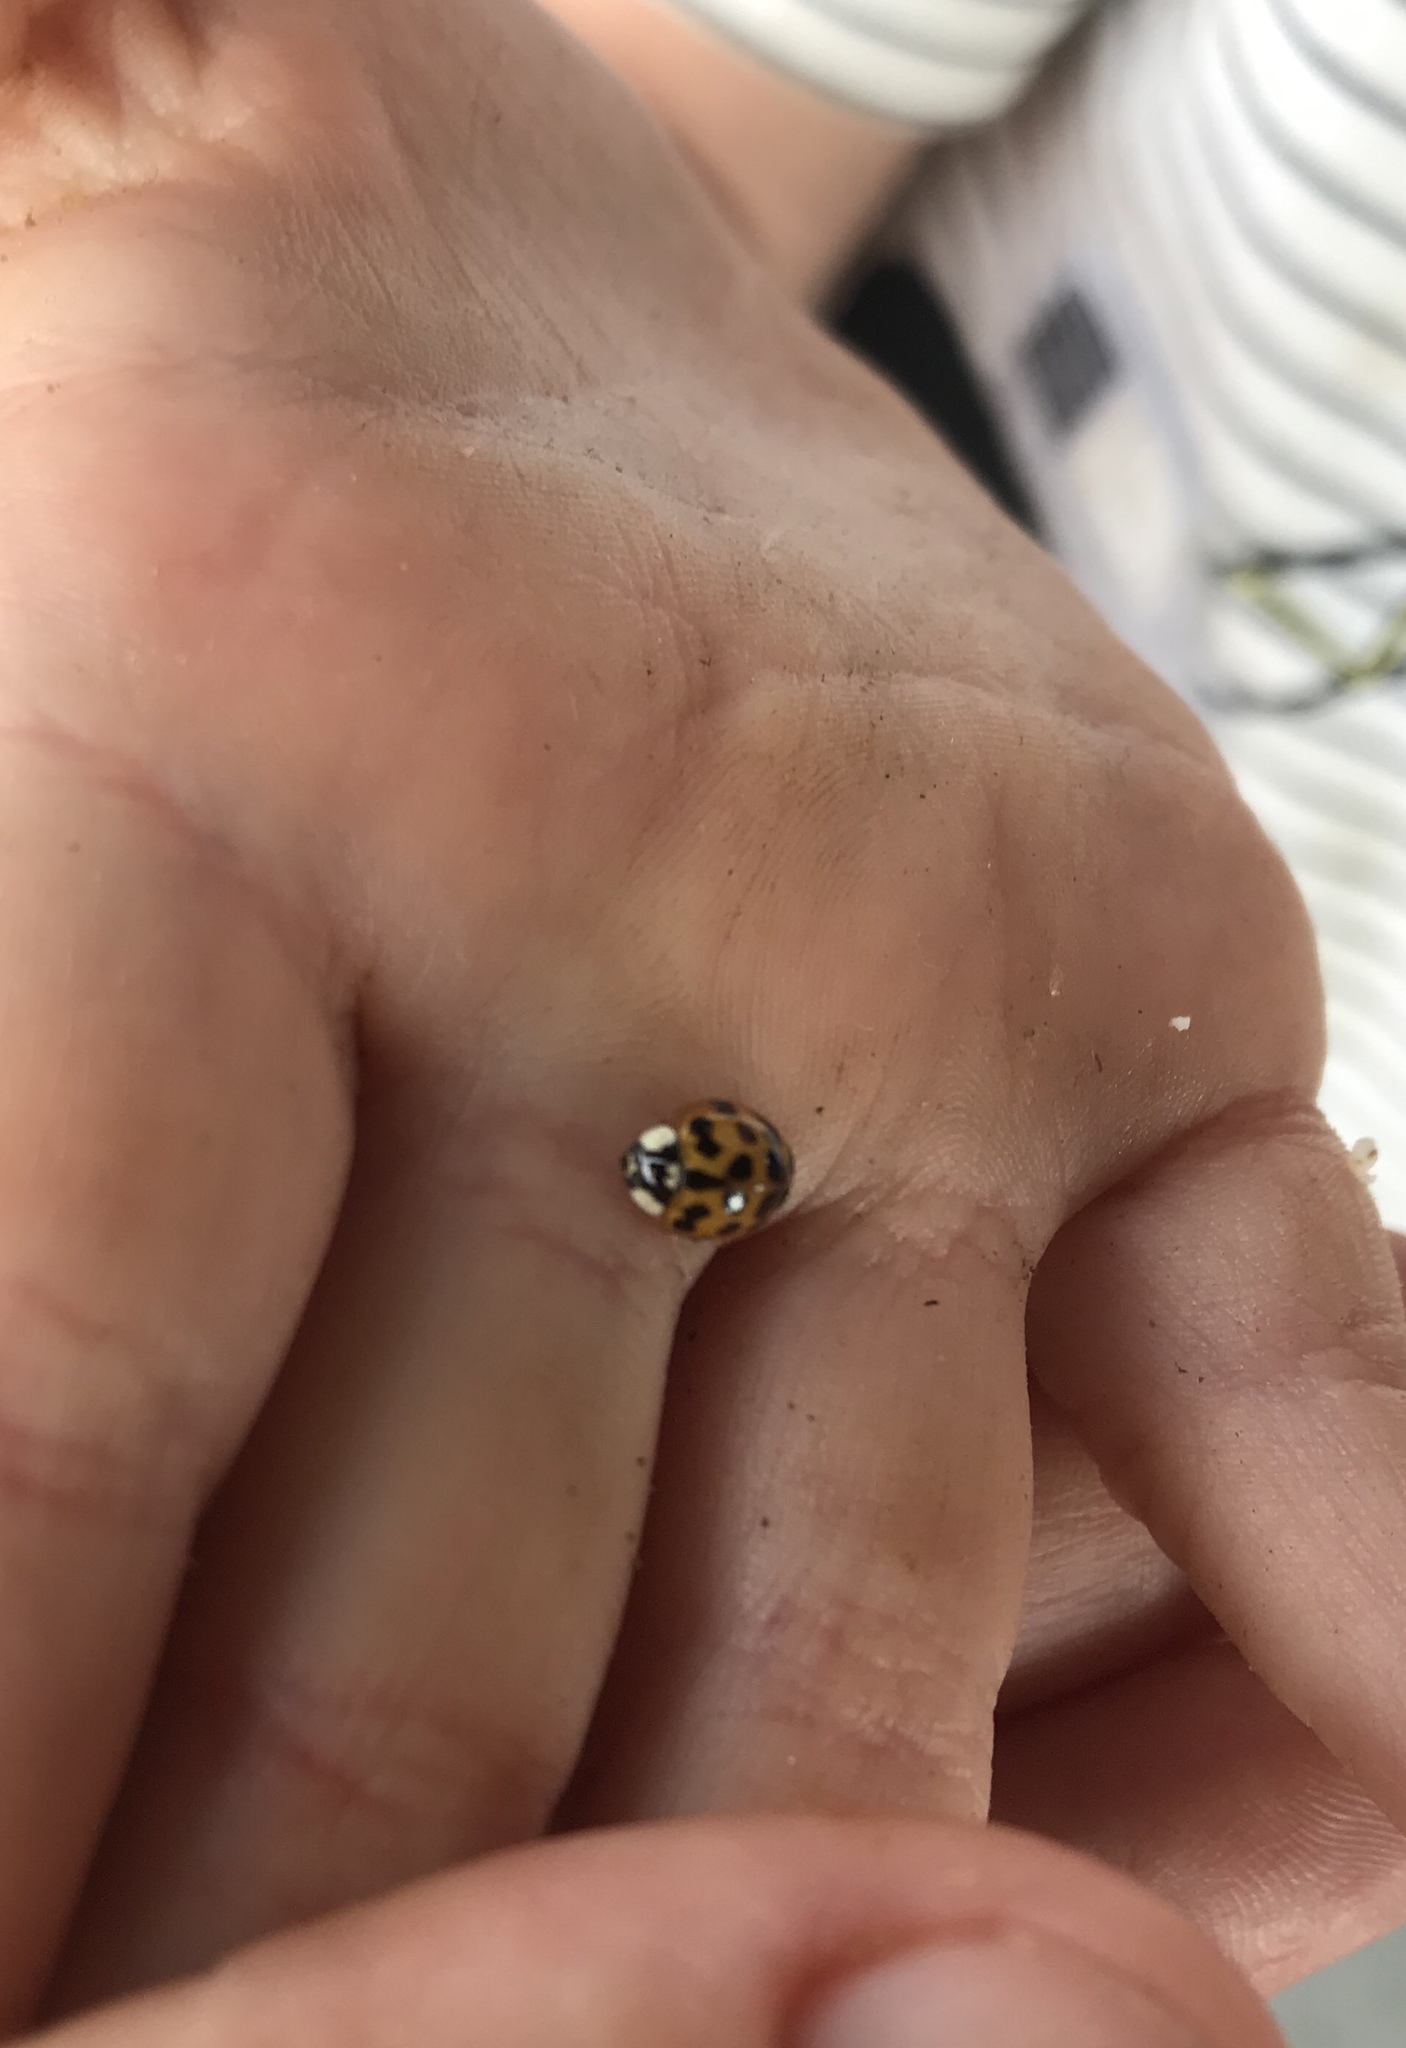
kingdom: Animalia
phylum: Arthropoda
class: Insecta
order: Coleoptera
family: Coccinellidae
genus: Harmonia
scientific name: Harmonia axyridis
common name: Harlequin ladybird
